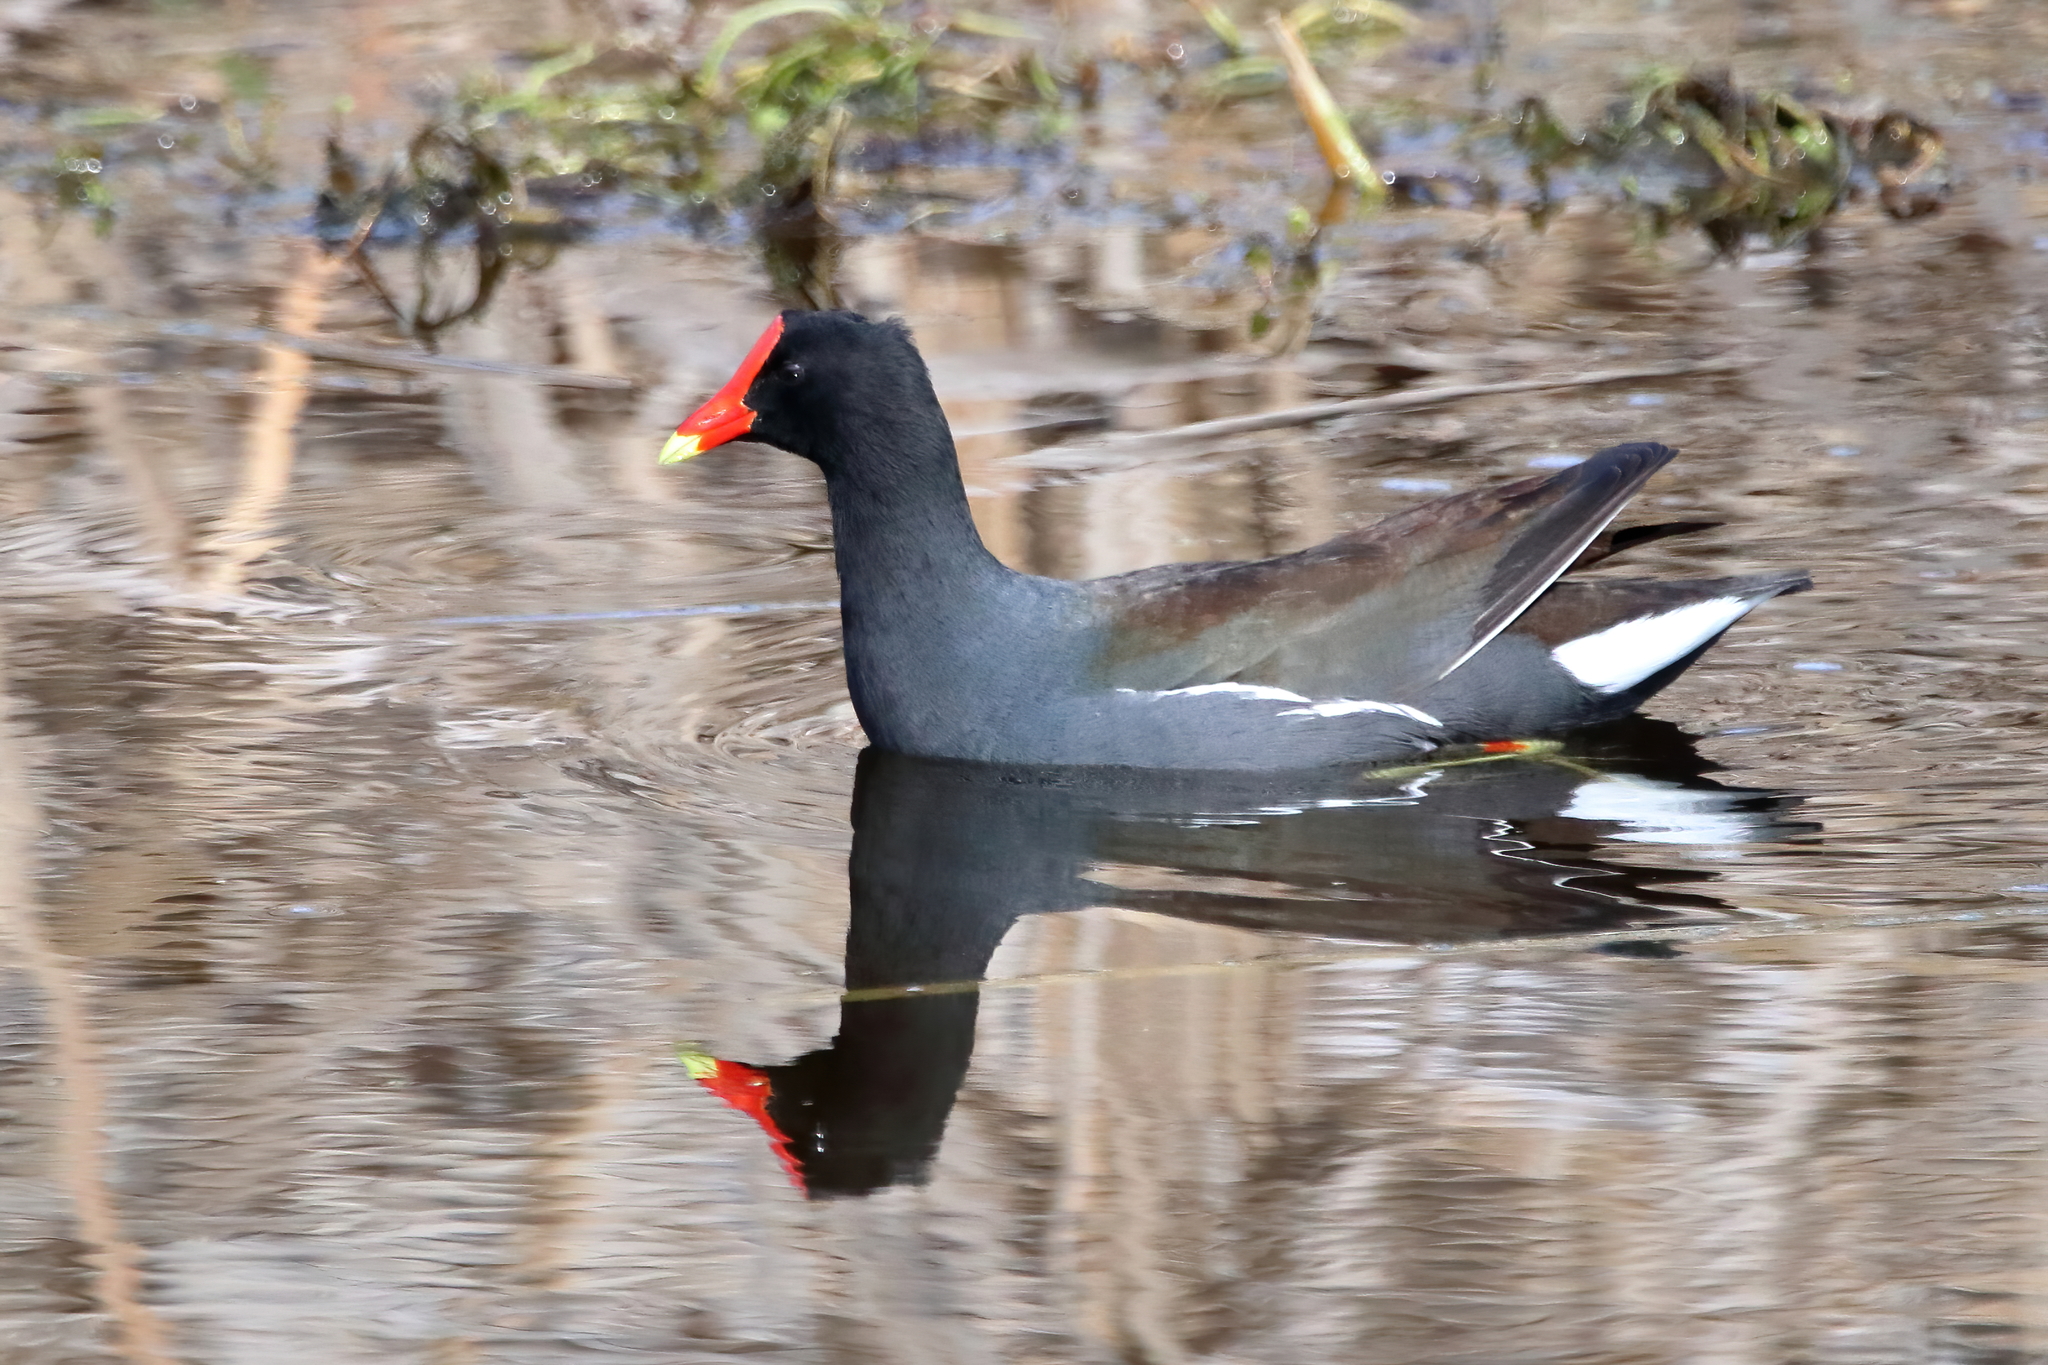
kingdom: Animalia
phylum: Chordata
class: Aves
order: Gruiformes
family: Rallidae
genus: Gallinula
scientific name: Gallinula chloropus
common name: Common moorhen
